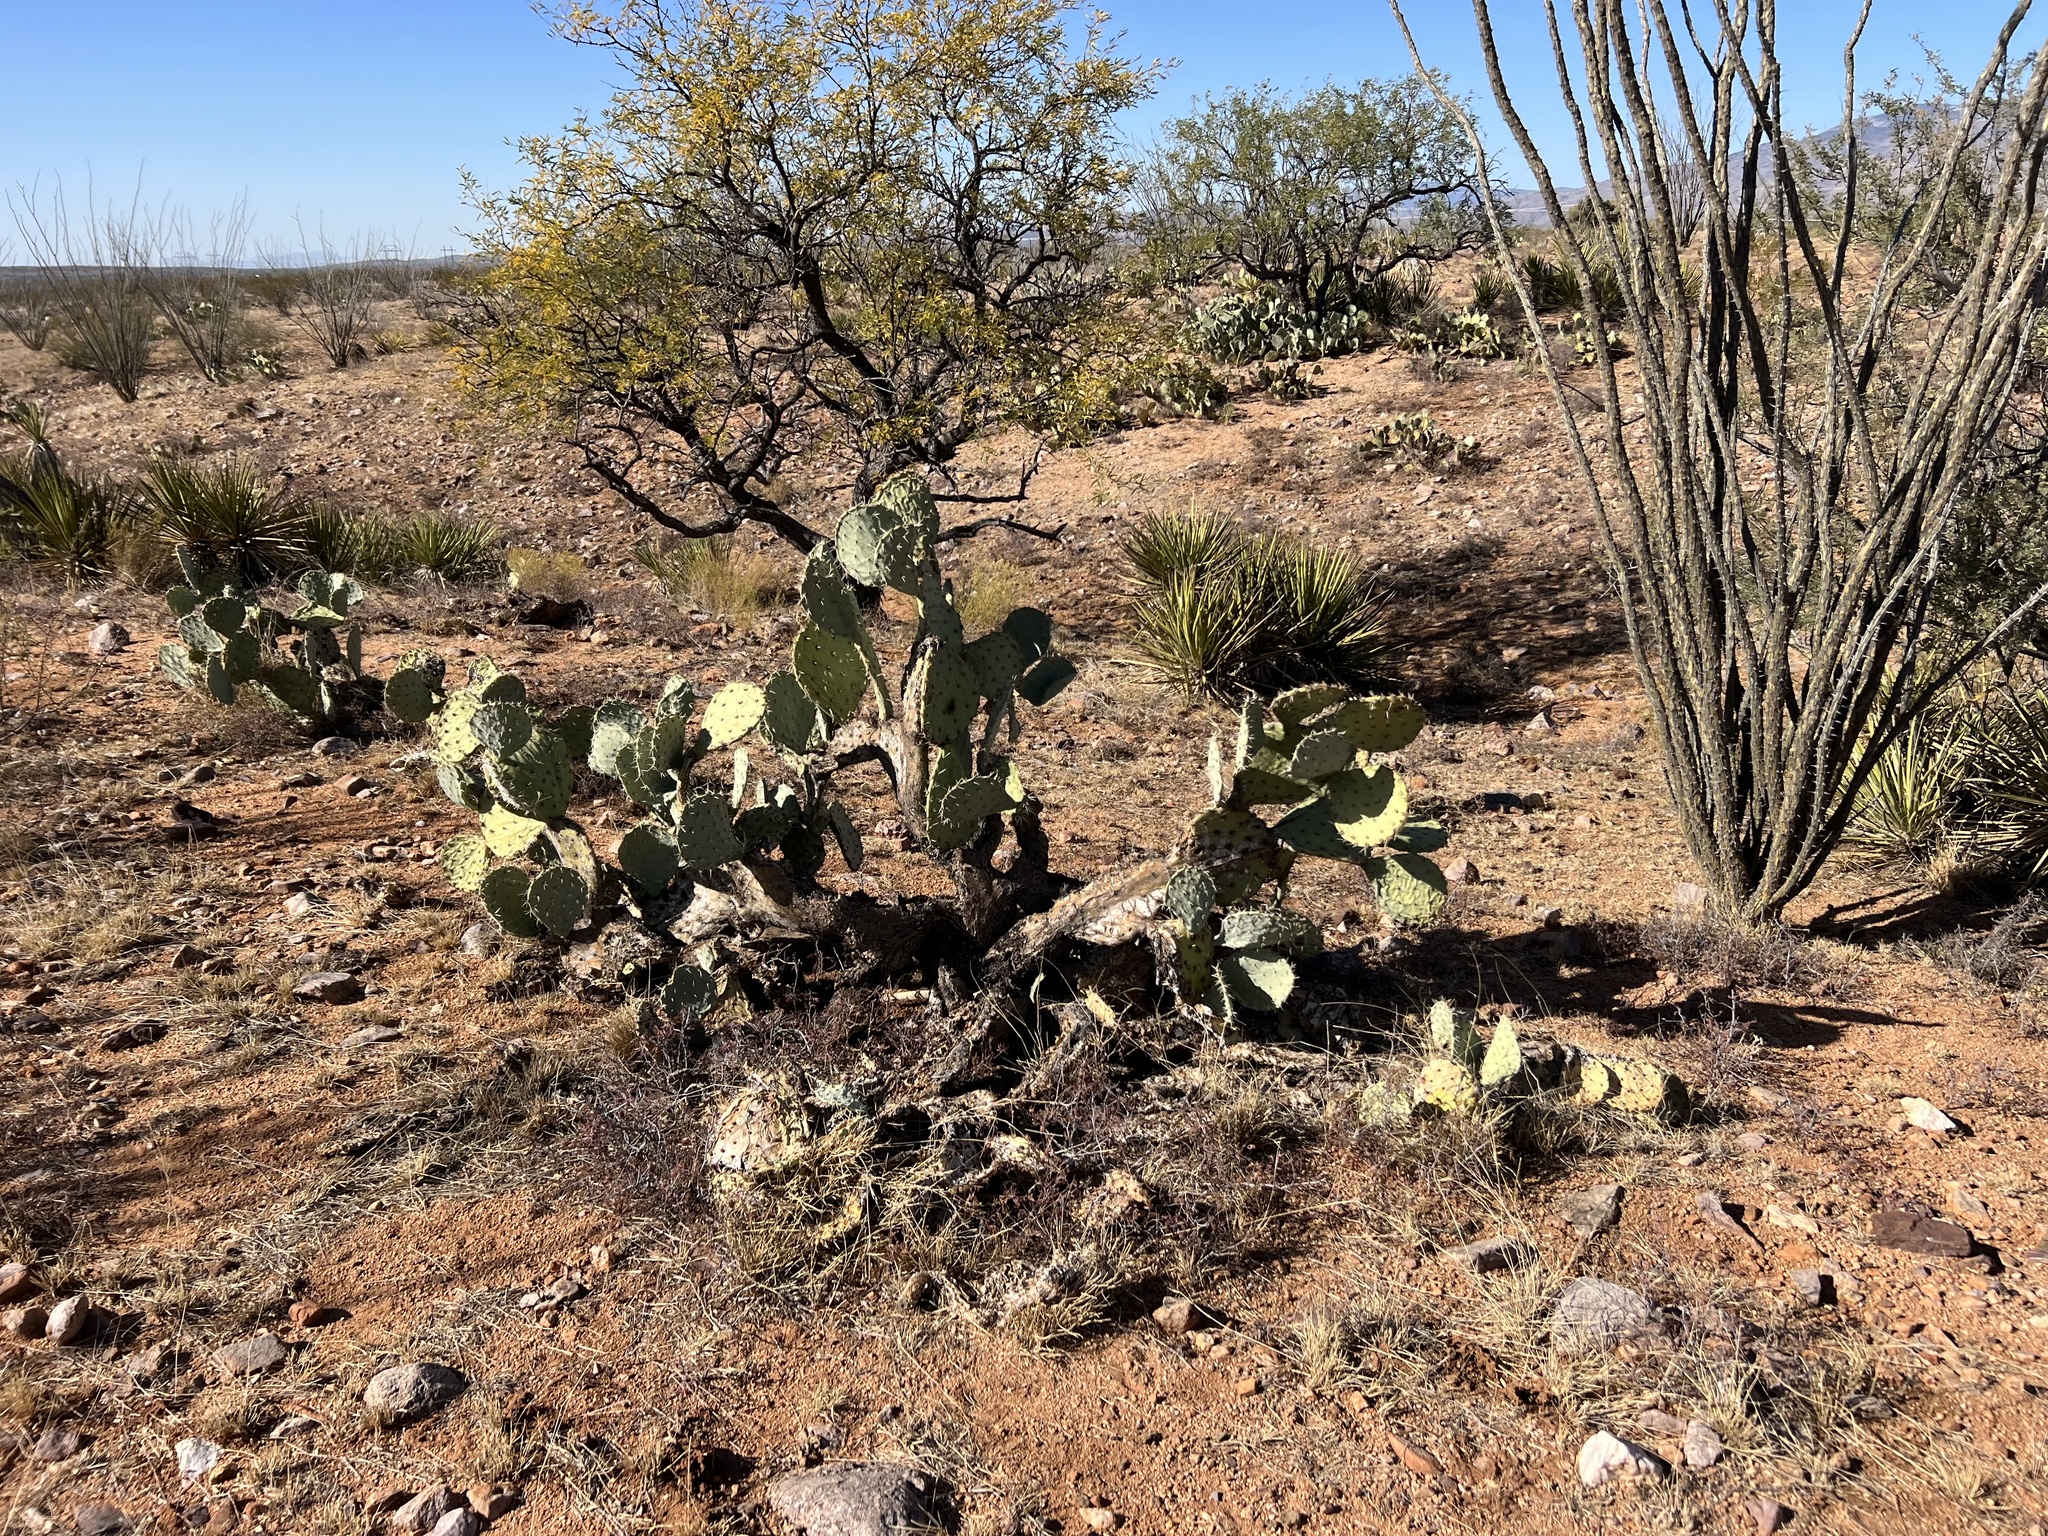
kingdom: Plantae
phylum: Tracheophyta
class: Magnoliopsida
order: Caryophyllales
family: Cactaceae
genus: Opuntia
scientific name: Opuntia engelmannii
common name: Cactus-apple
